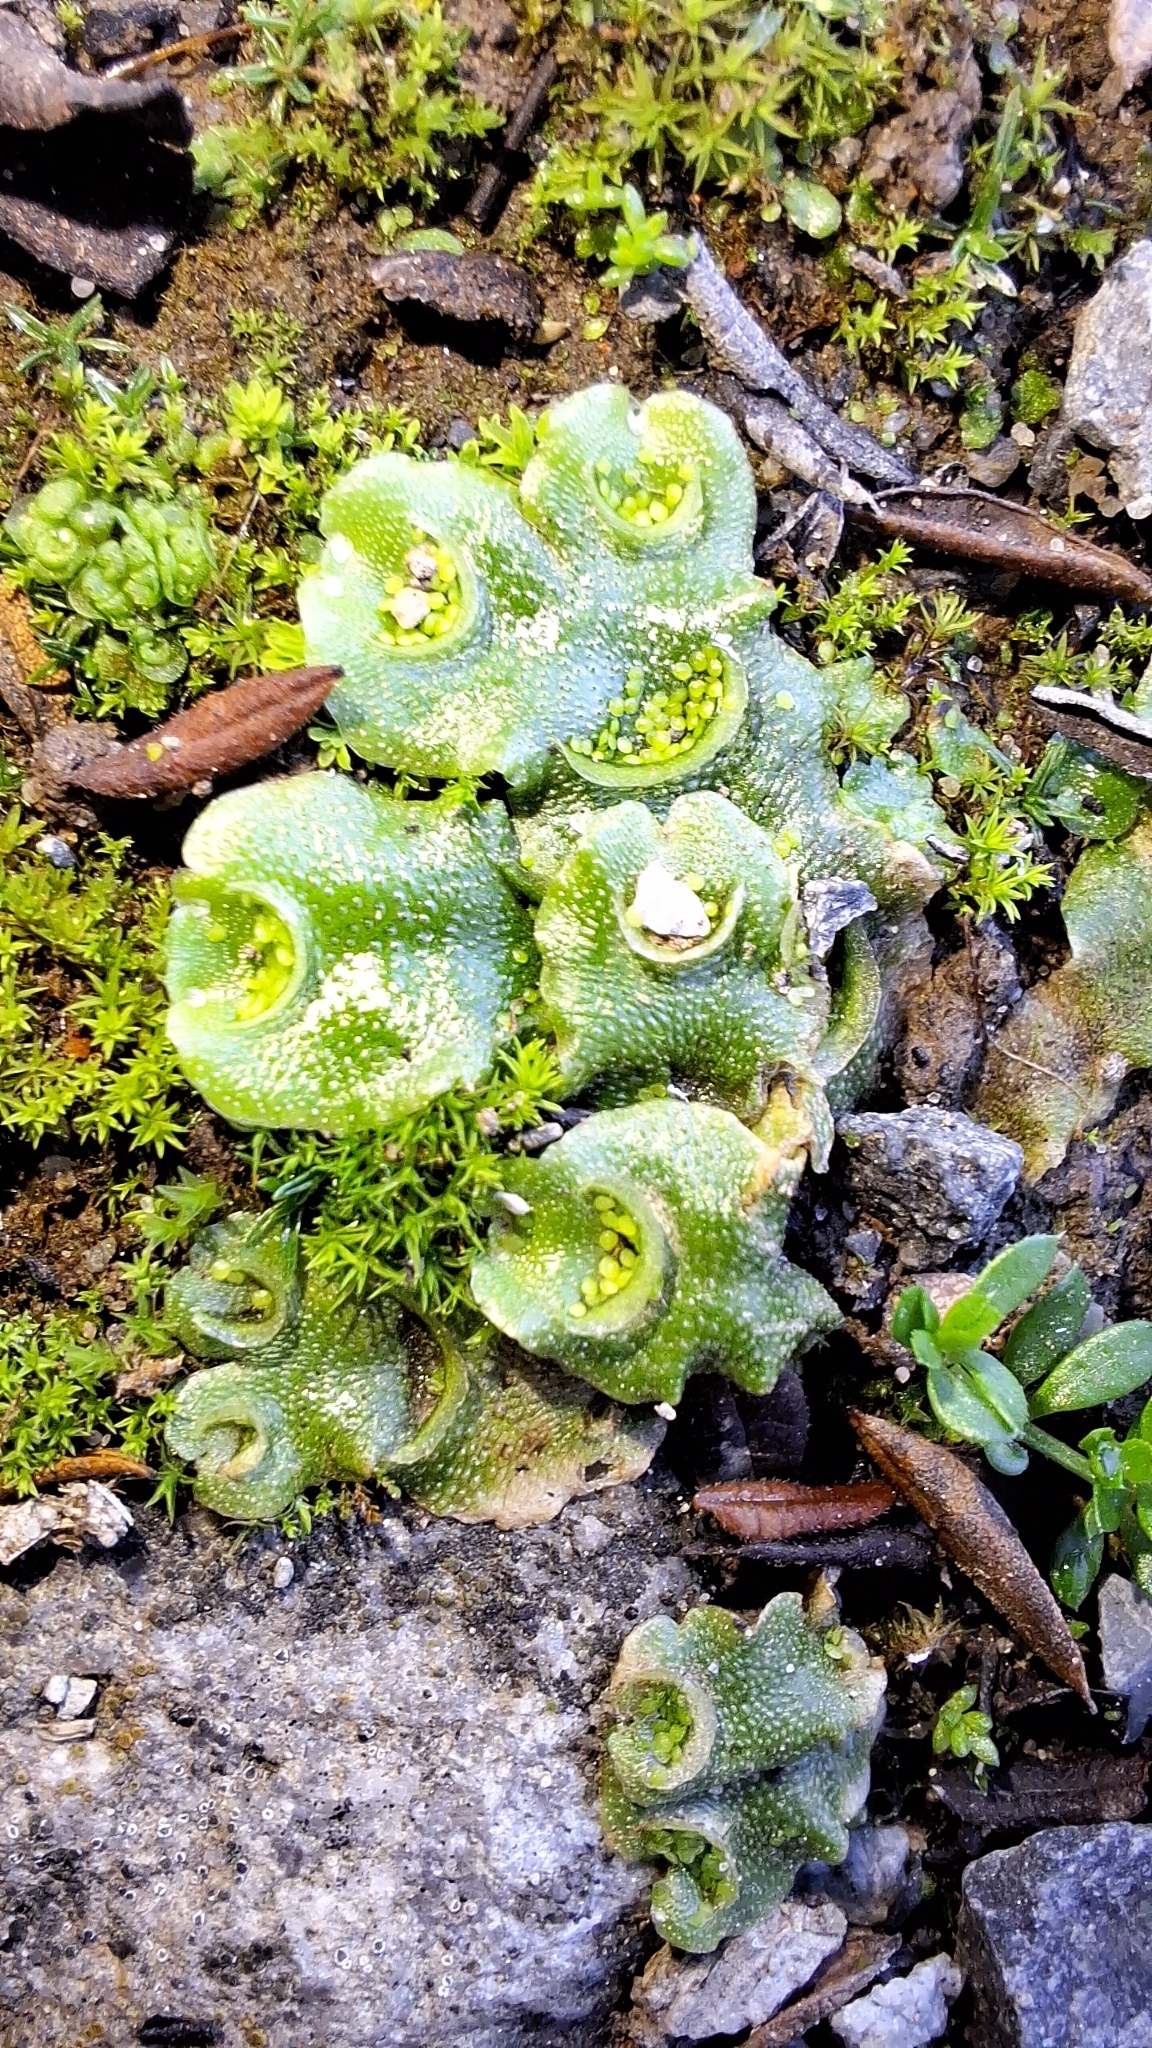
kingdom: Plantae
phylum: Marchantiophyta
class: Marchantiopsida
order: Lunulariales
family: Lunulariaceae
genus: Lunularia
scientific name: Lunularia cruciata
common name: Crescent-cup liverwort
